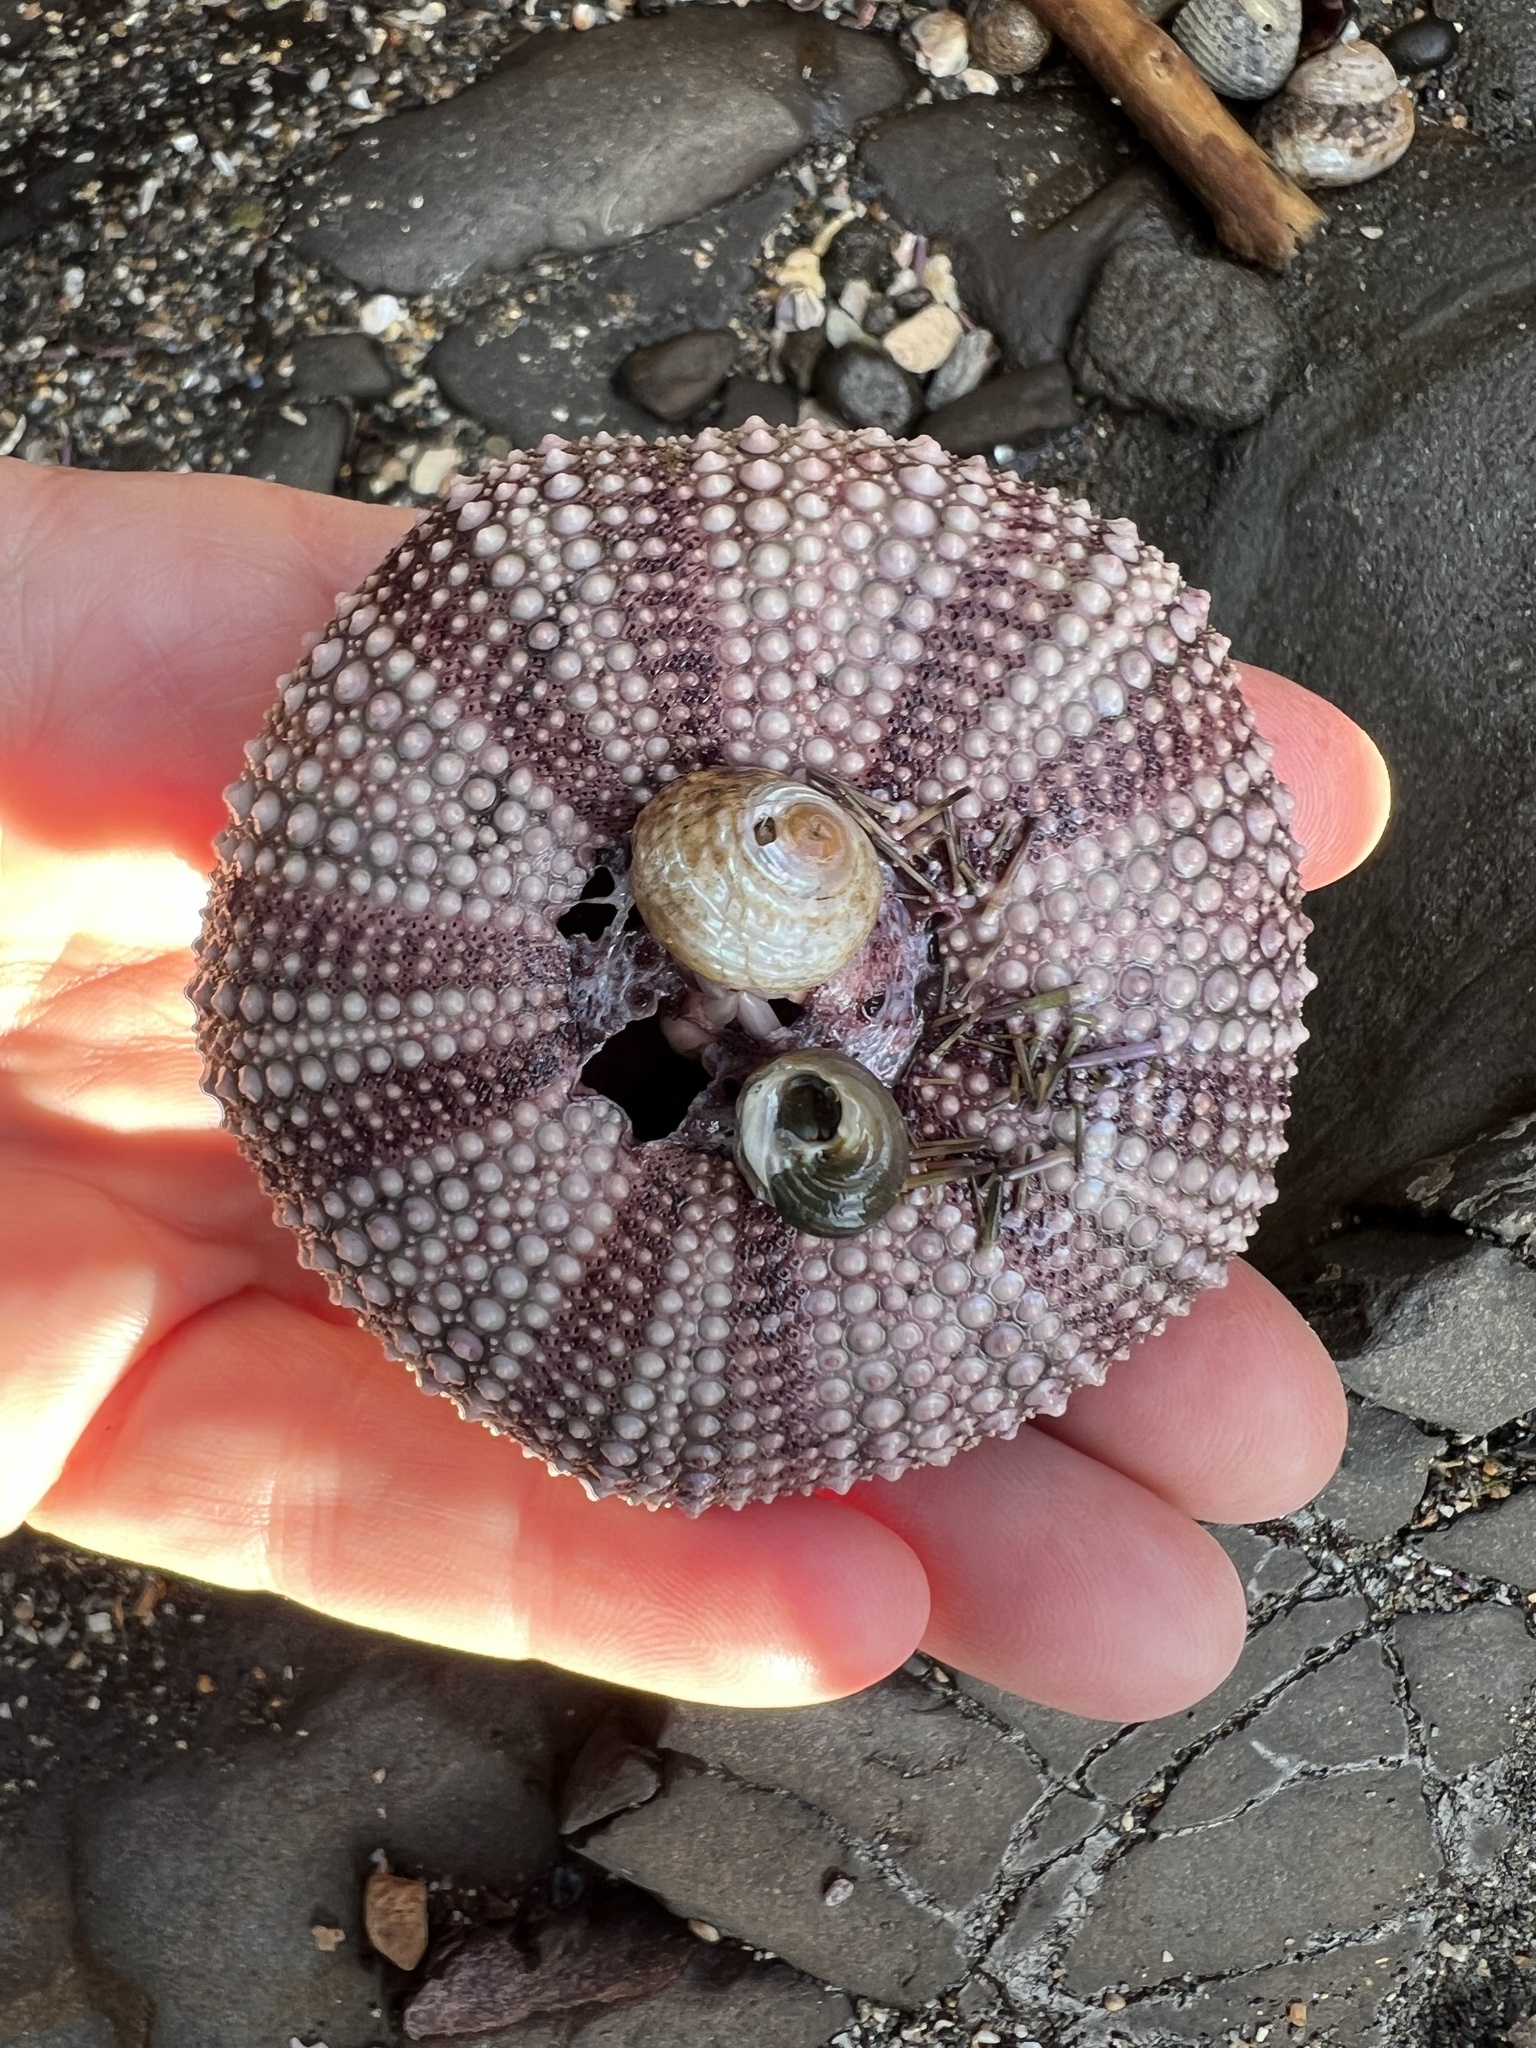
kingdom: Animalia
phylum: Echinodermata
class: Echinoidea
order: Camarodonta
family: Strongylocentrotidae
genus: Strongylocentrotus
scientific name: Strongylocentrotus purpuratus
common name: Purple sea urchin
